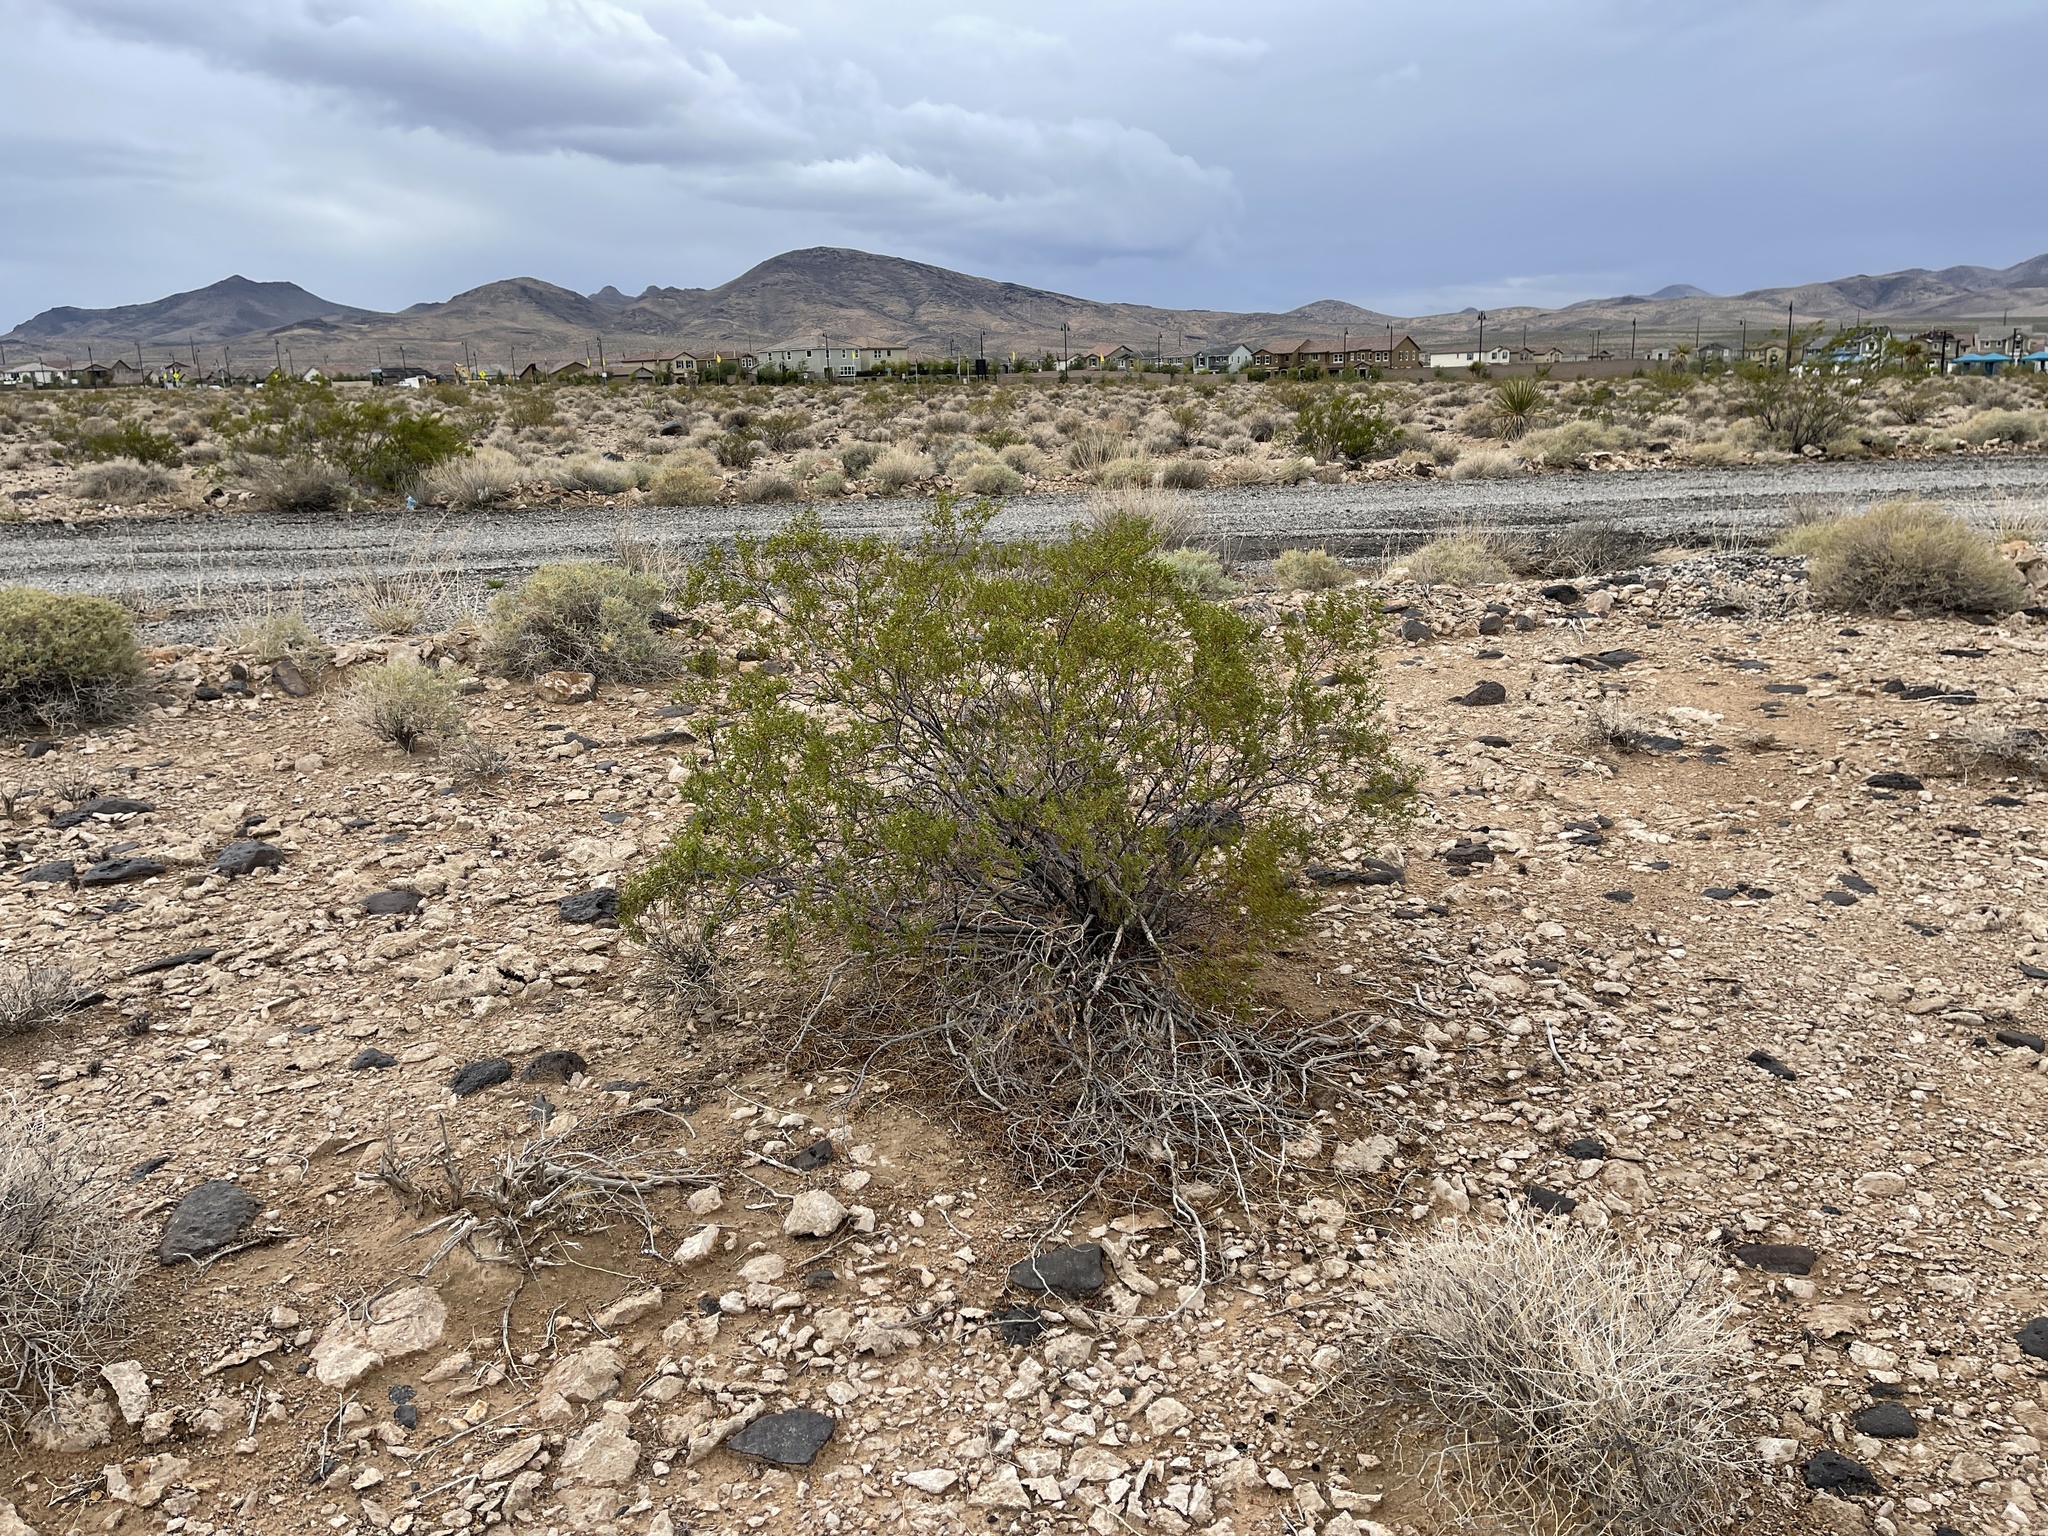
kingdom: Plantae
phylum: Tracheophyta
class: Magnoliopsida
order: Zygophyllales
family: Zygophyllaceae
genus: Larrea
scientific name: Larrea tridentata
